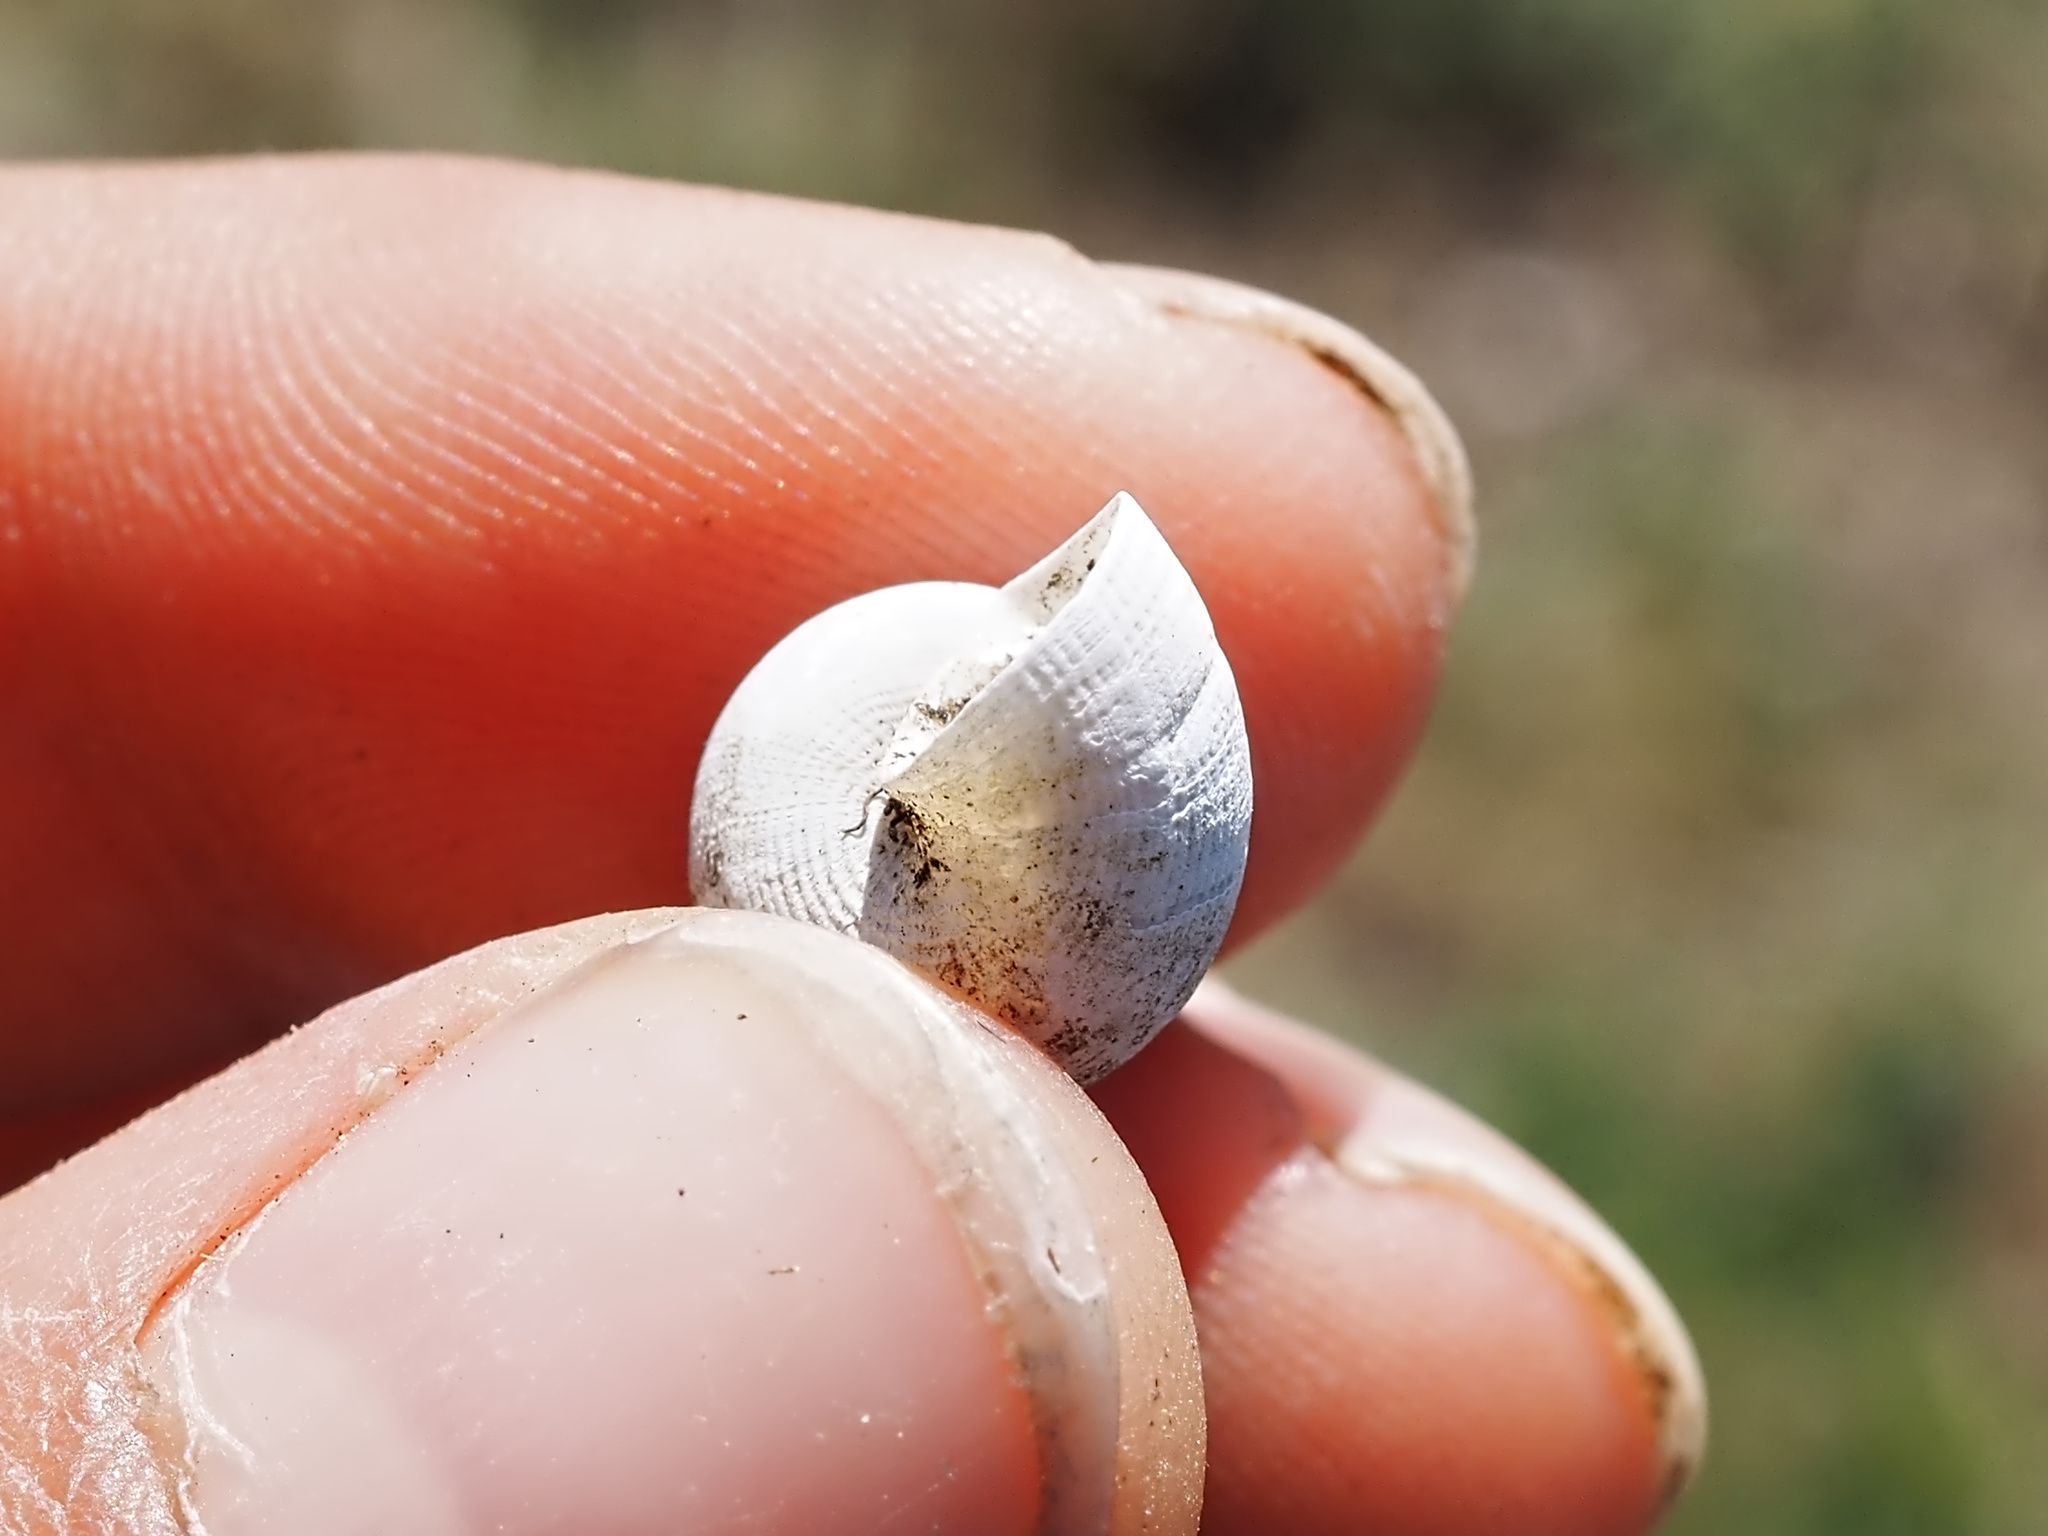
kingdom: Animalia
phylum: Mollusca
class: Gastropoda
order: Littorinimorpha
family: Pomatiidae
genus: Pomatias
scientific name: Pomatias elegans
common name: Red-mouthed snail
